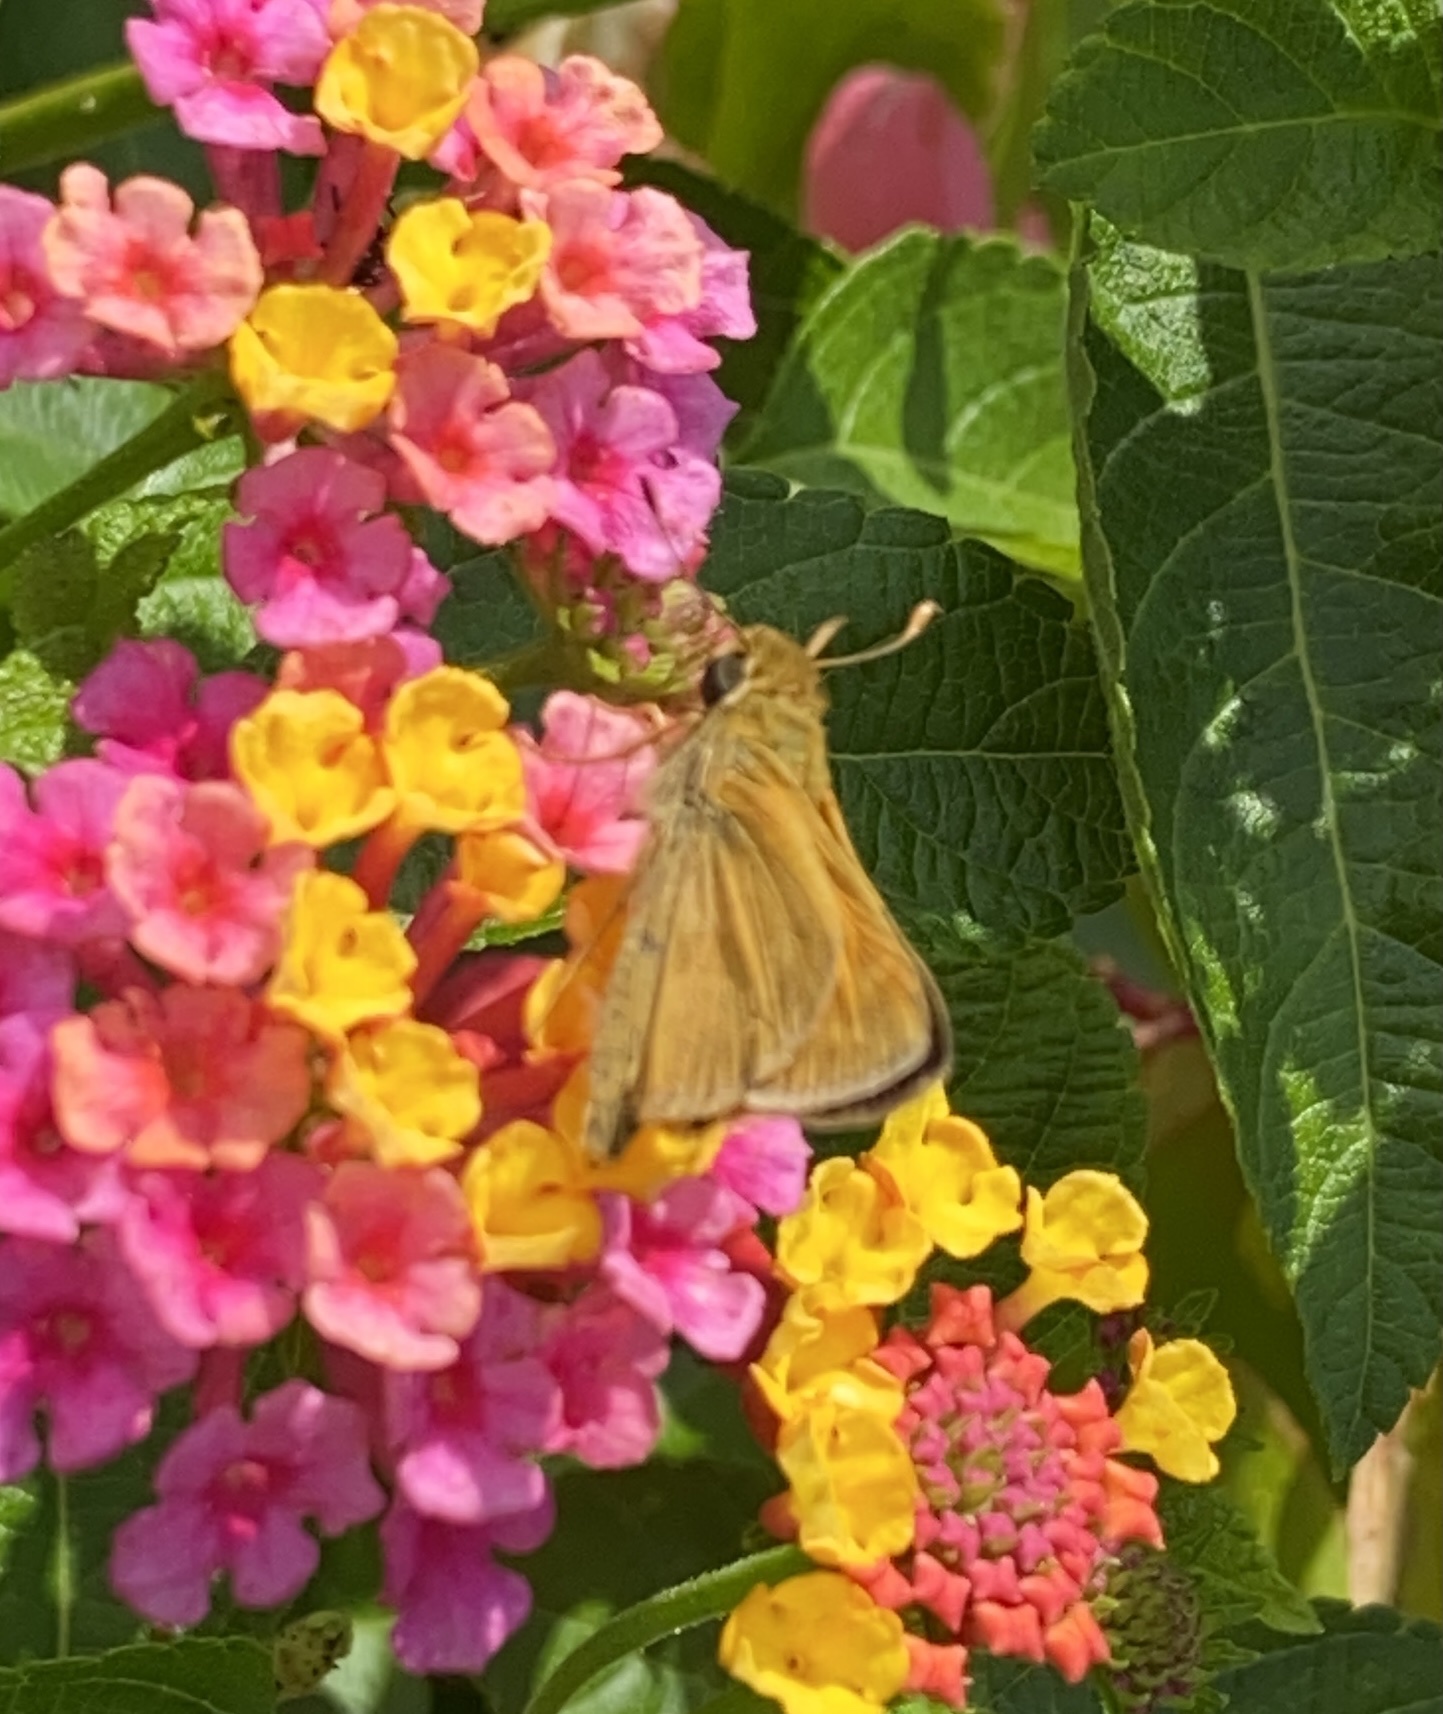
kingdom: Animalia
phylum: Arthropoda
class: Insecta
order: Lepidoptera
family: Hesperiidae
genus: Atalopedes
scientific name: Atalopedes
